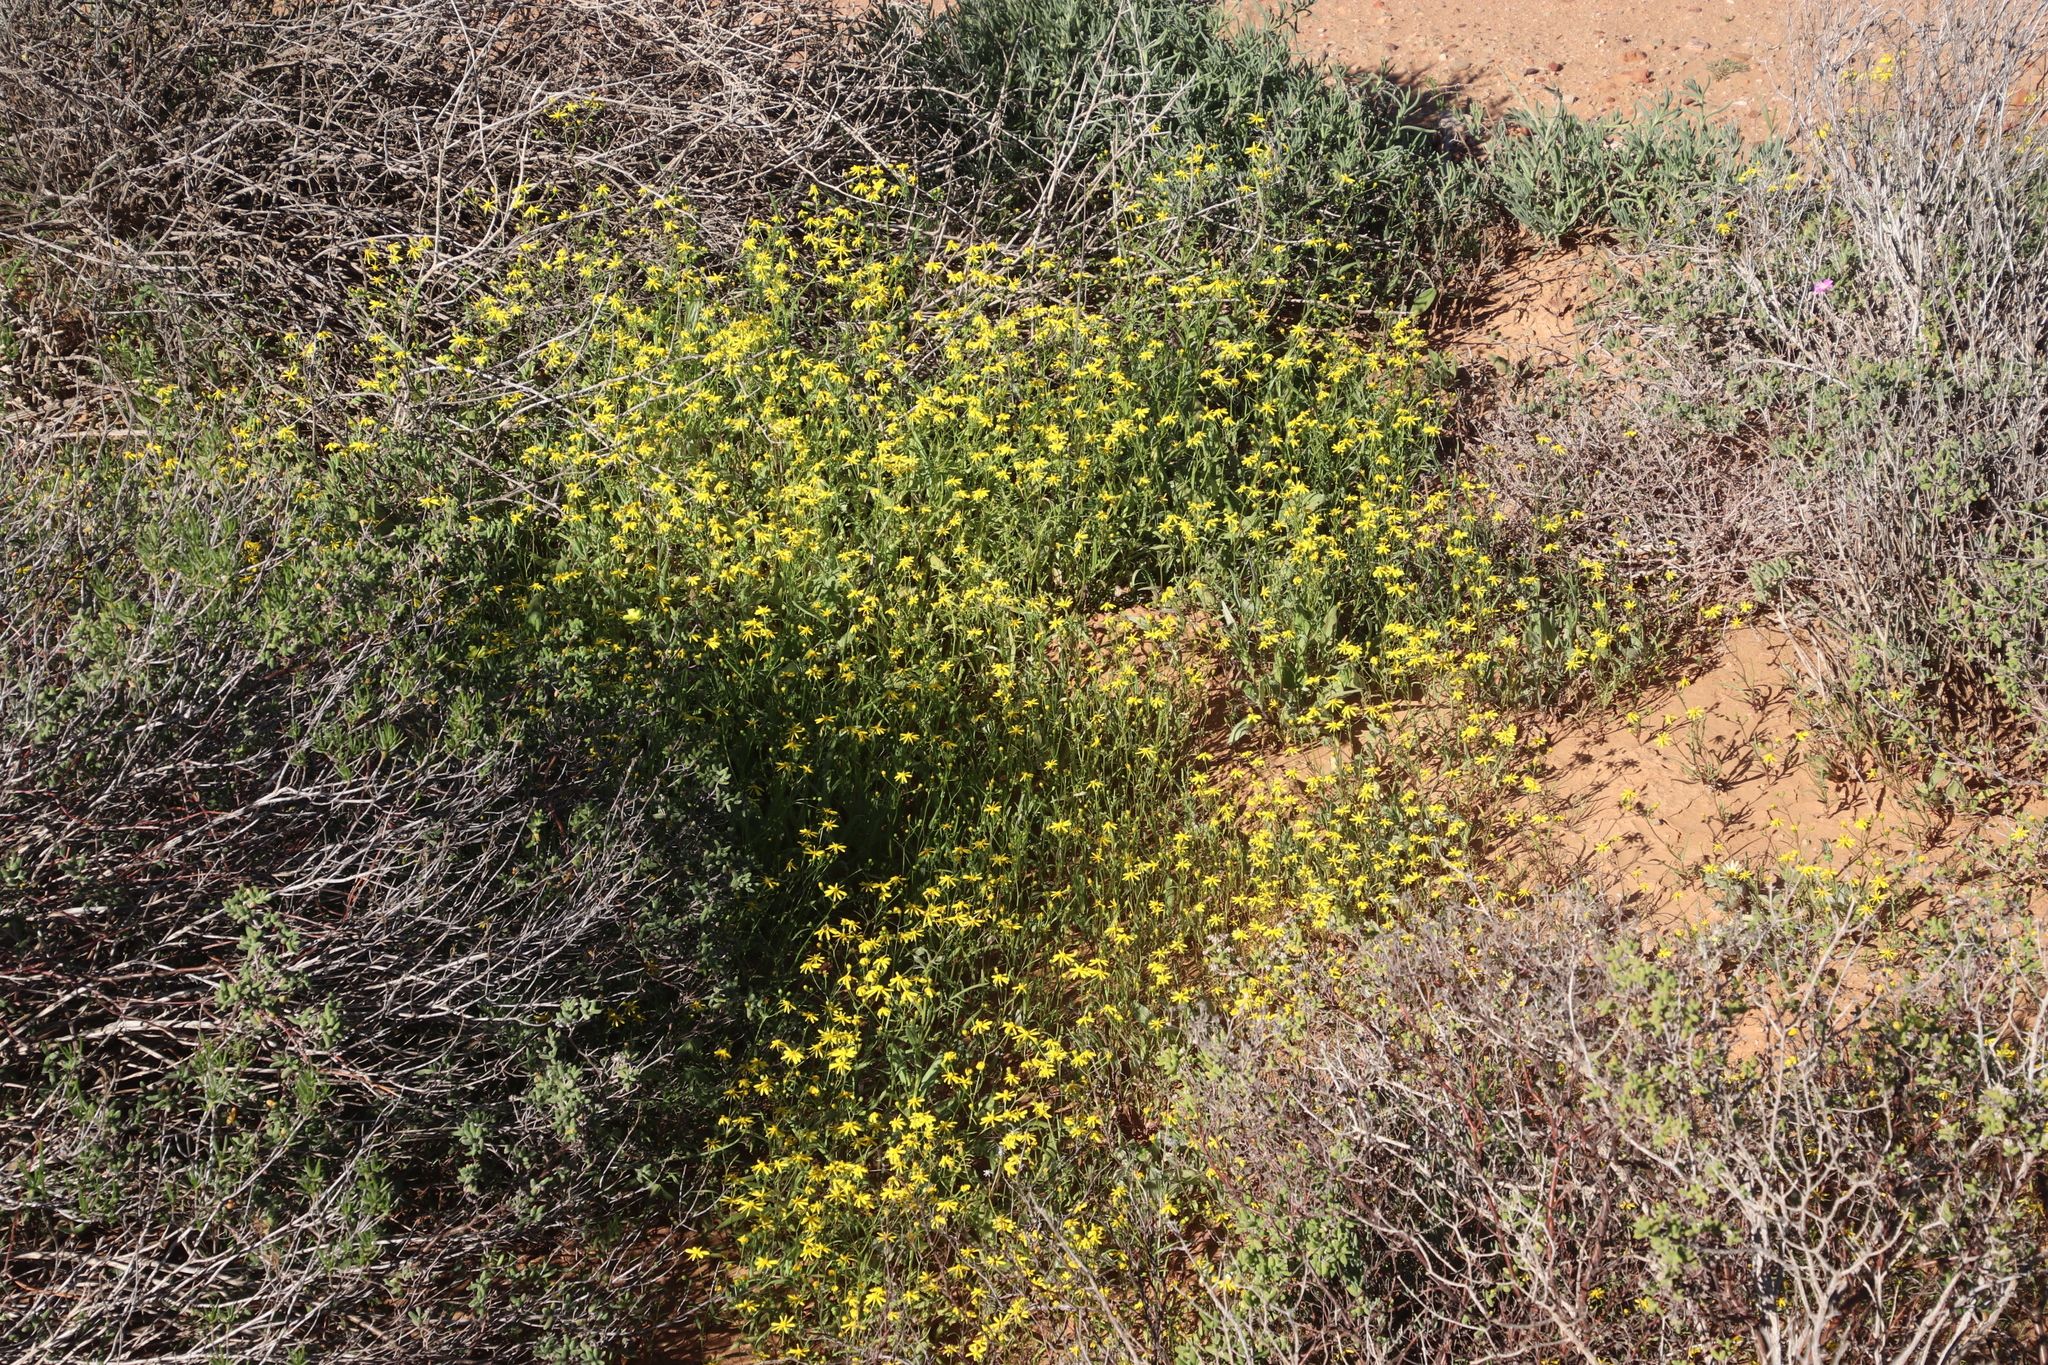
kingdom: Plantae
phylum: Tracheophyta
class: Magnoliopsida
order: Asterales
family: Asteraceae
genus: Senecio
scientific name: Senecio abruptus
